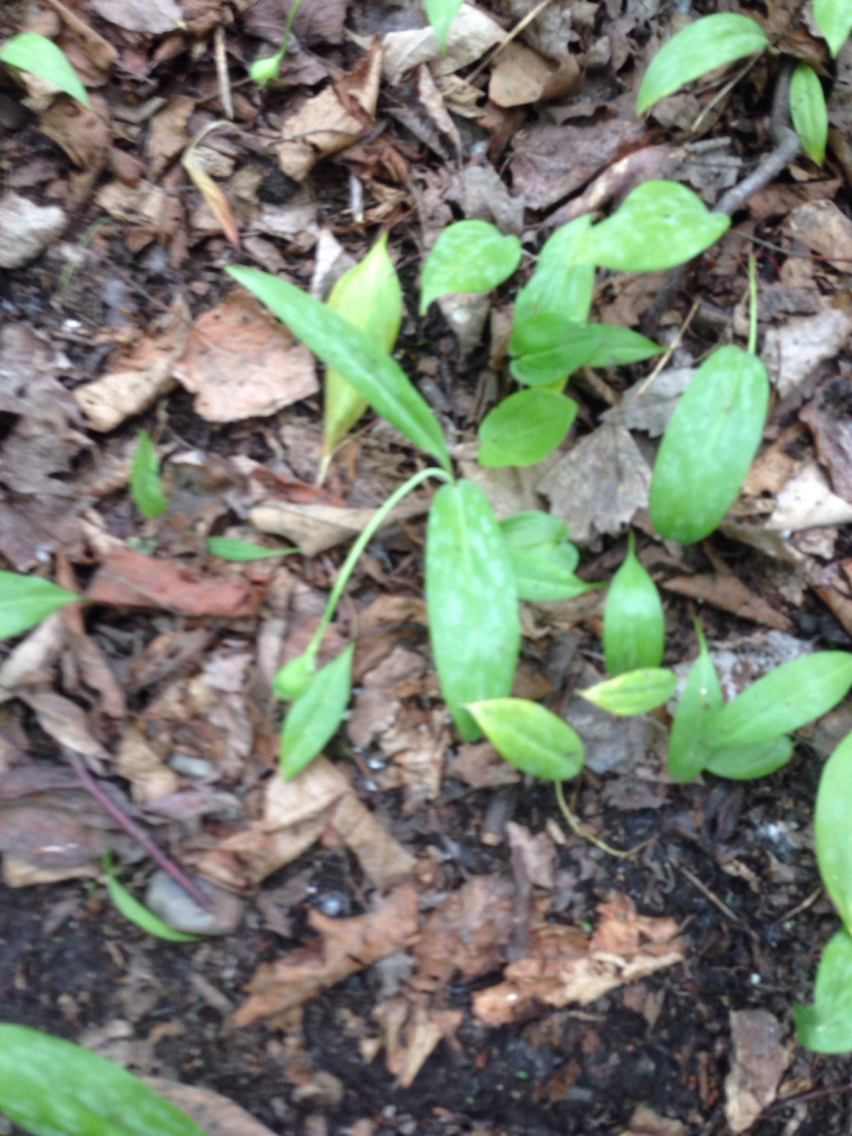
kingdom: Plantae
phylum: Tracheophyta
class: Liliopsida
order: Liliales
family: Liliaceae
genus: Erythronium
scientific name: Erythronium americanum
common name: Yellow adder's-tongue
